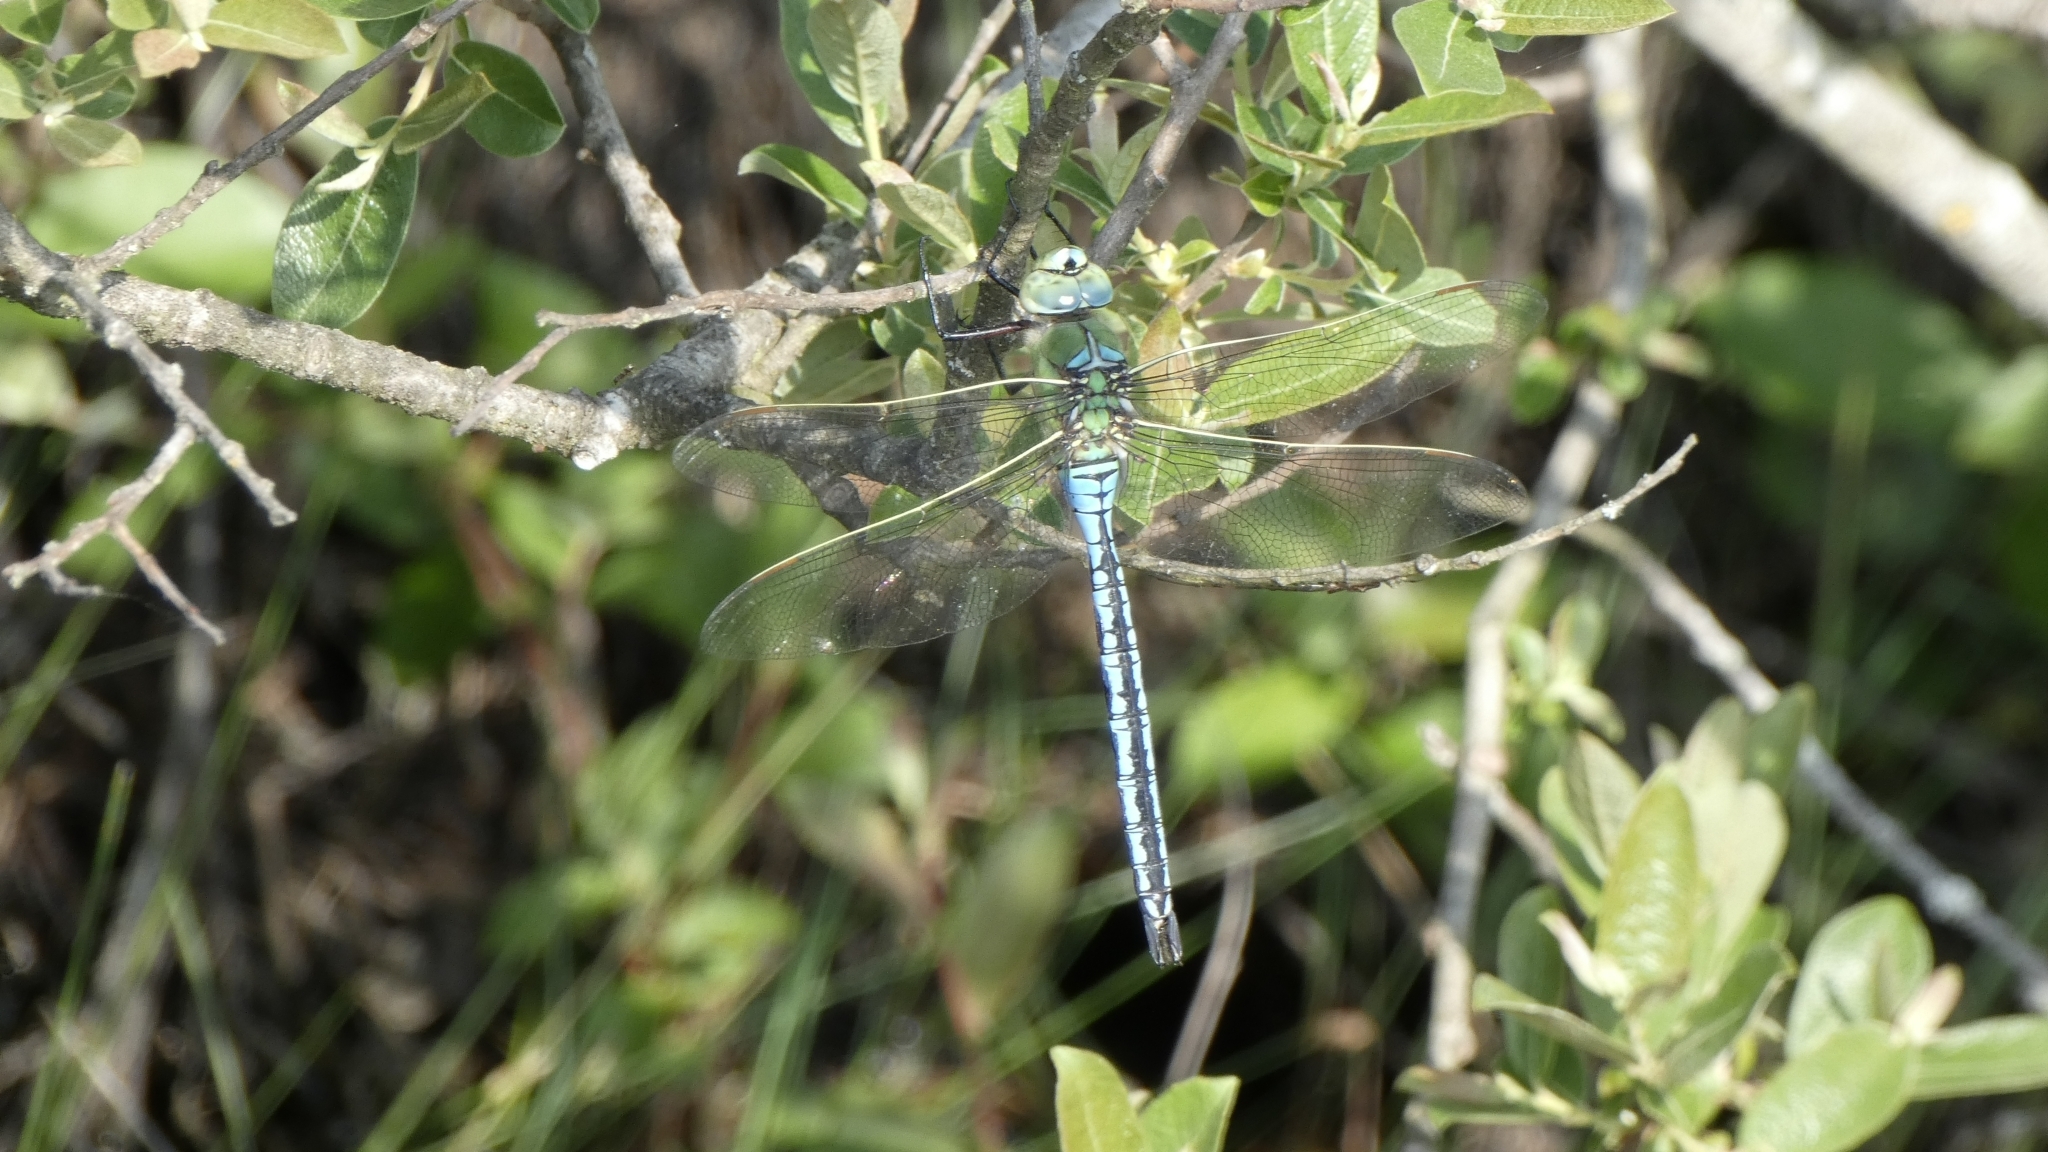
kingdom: Animalia
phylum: Arthropoda
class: Insecta
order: Odonata
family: Aeshnidae
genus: Anax
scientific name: Anax imperator
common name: Emperor dragonfly
